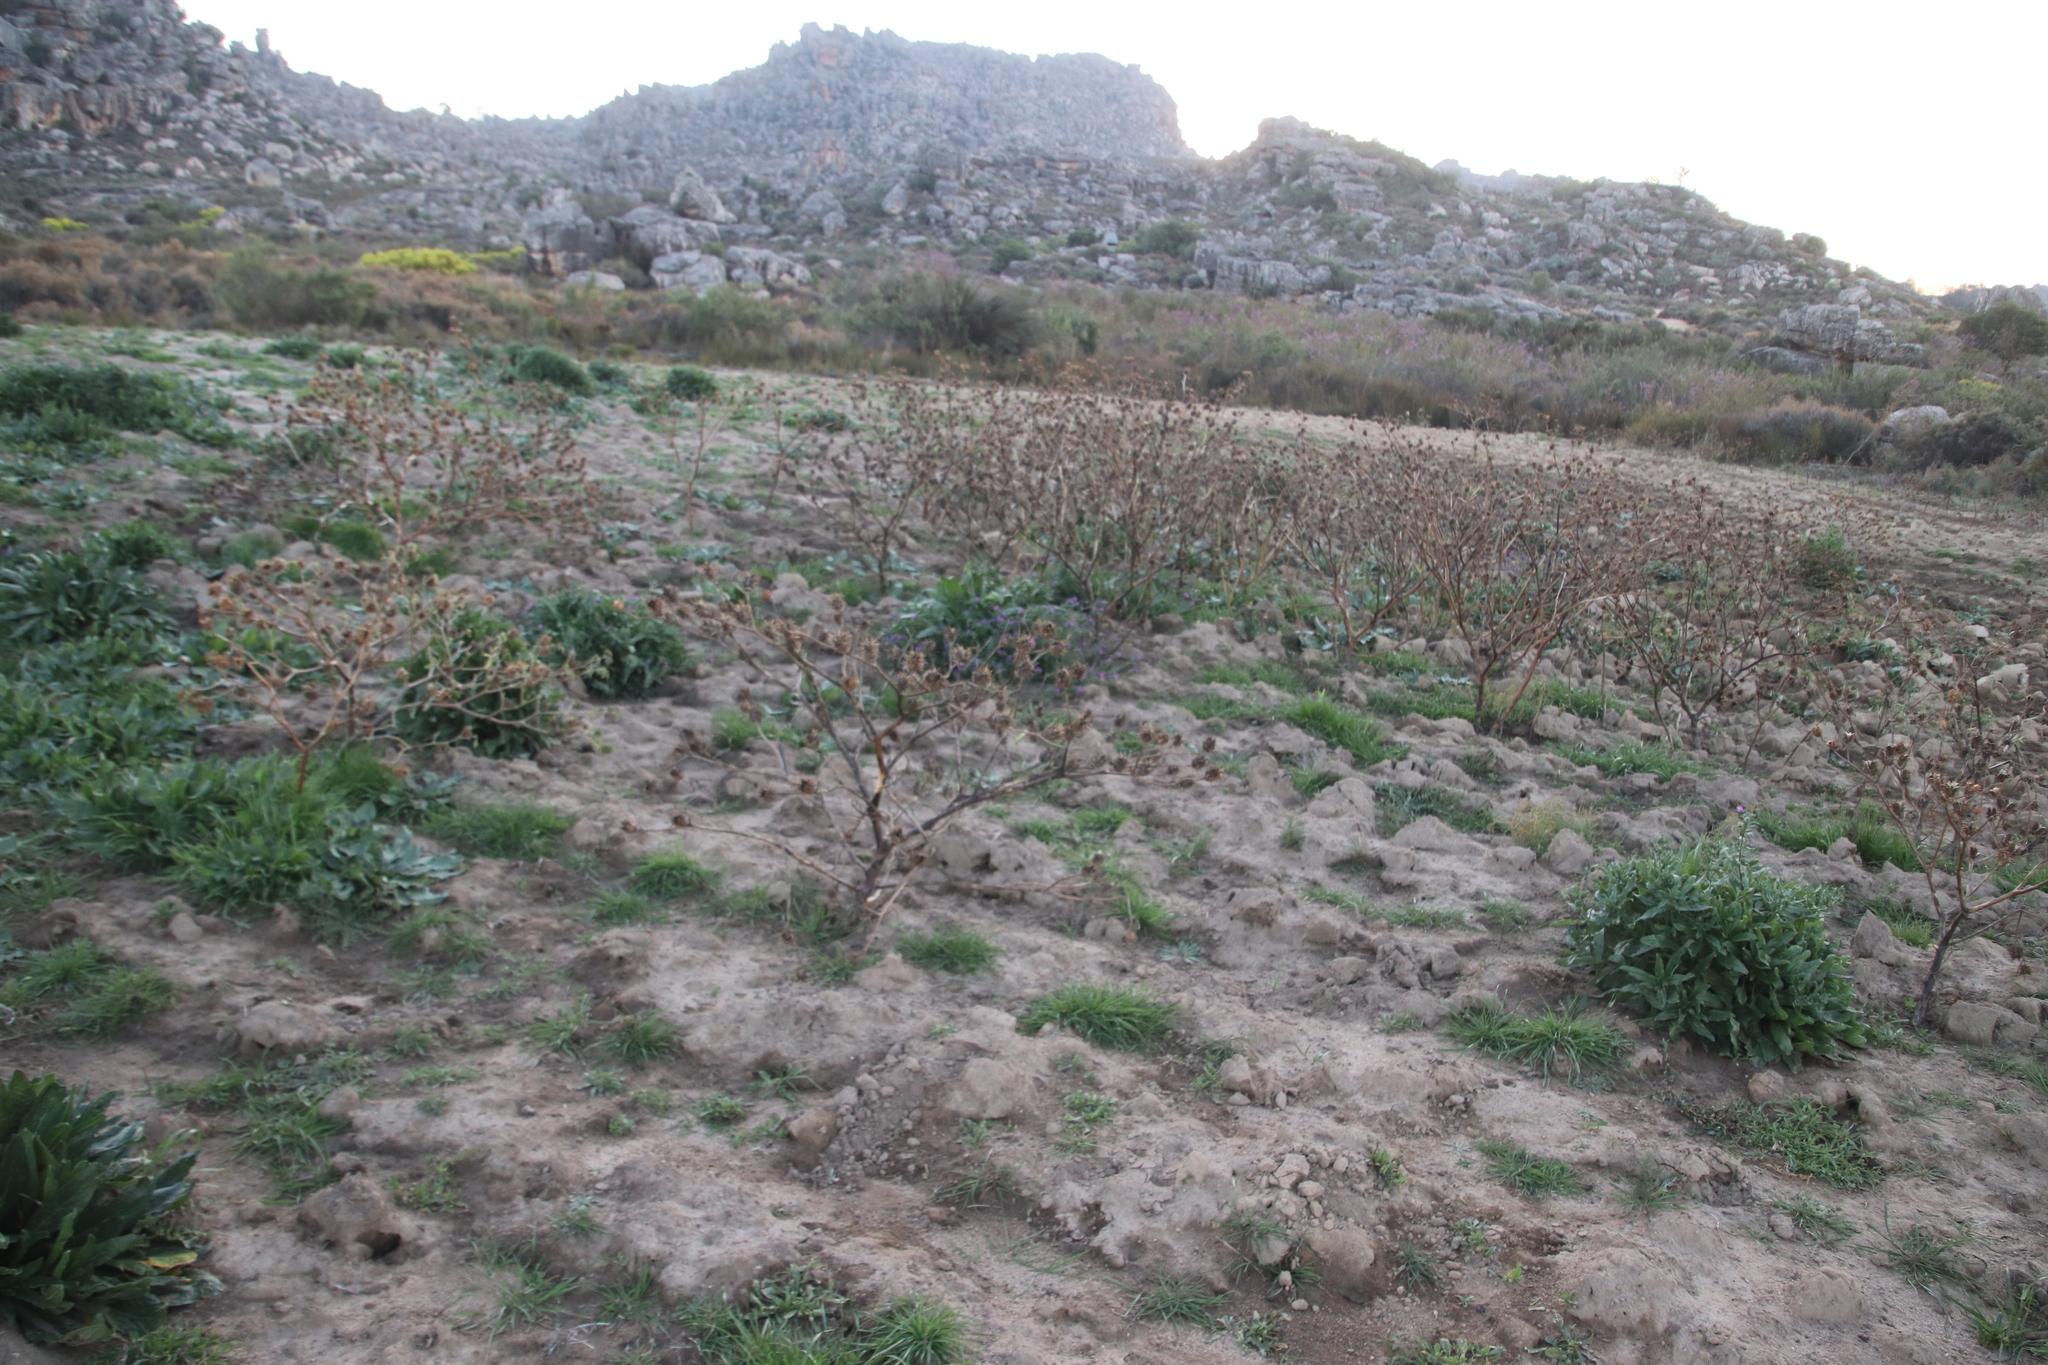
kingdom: Plantae
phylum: Tracheophyta
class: Magnoliopsida
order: Solanales
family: Solanaceae
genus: Datura
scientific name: Datura stramonium
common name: Thorn-apple
